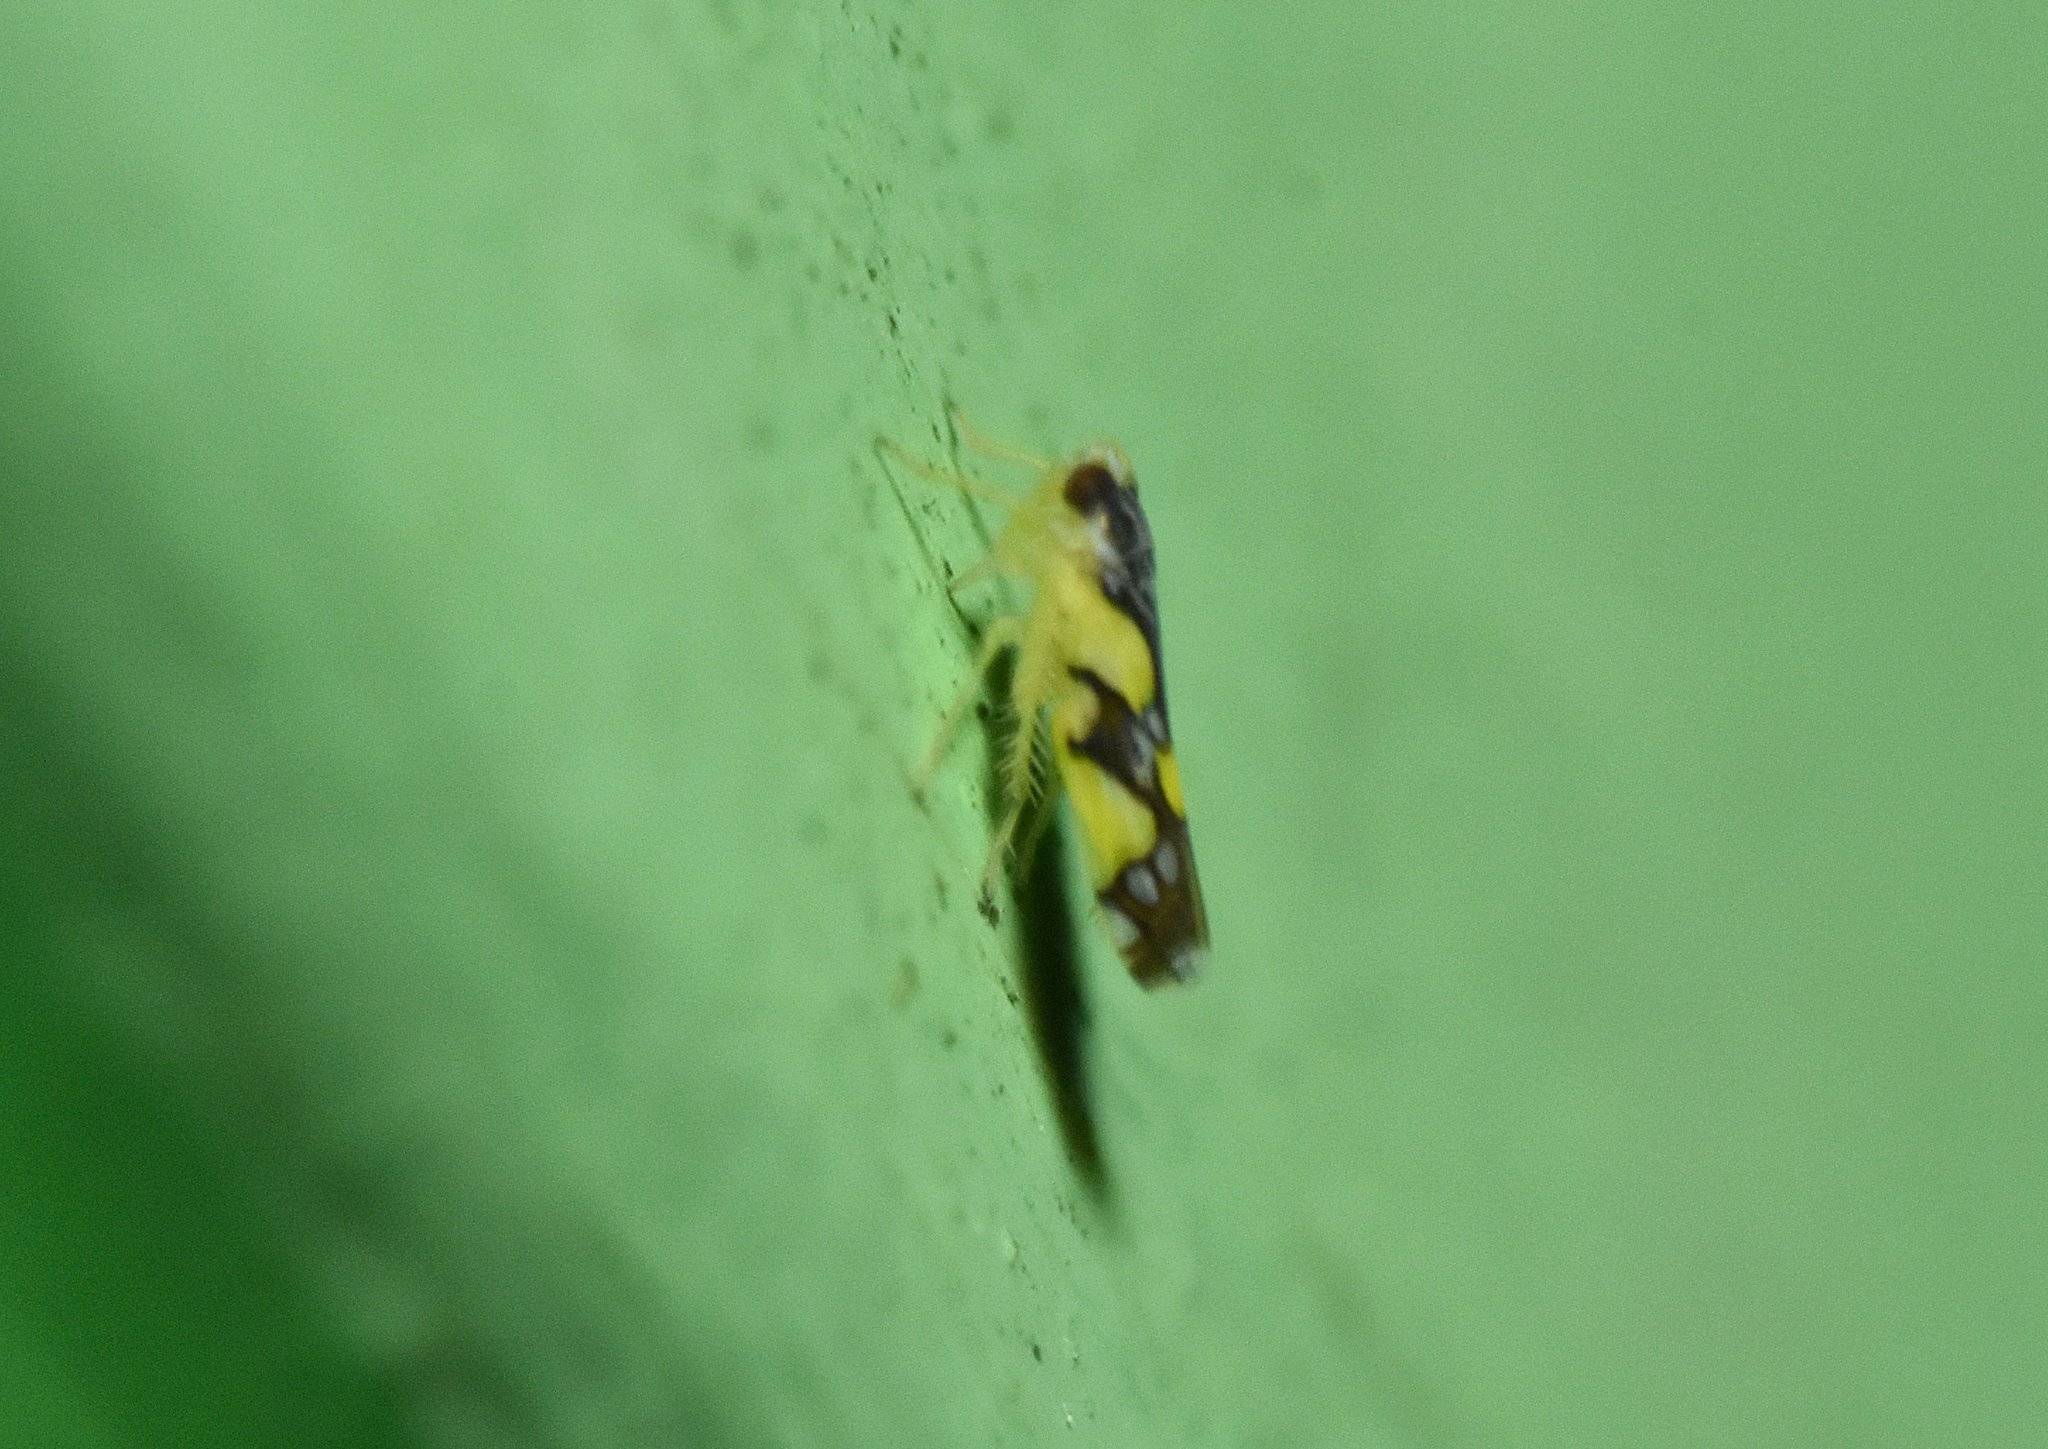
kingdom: Animalia
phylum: Arthropoda
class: Insecta
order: Hemiptera
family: Cicadellidae
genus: Protalebrella
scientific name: Protalebrella brasiliensis
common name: Brasilian leafhopper
